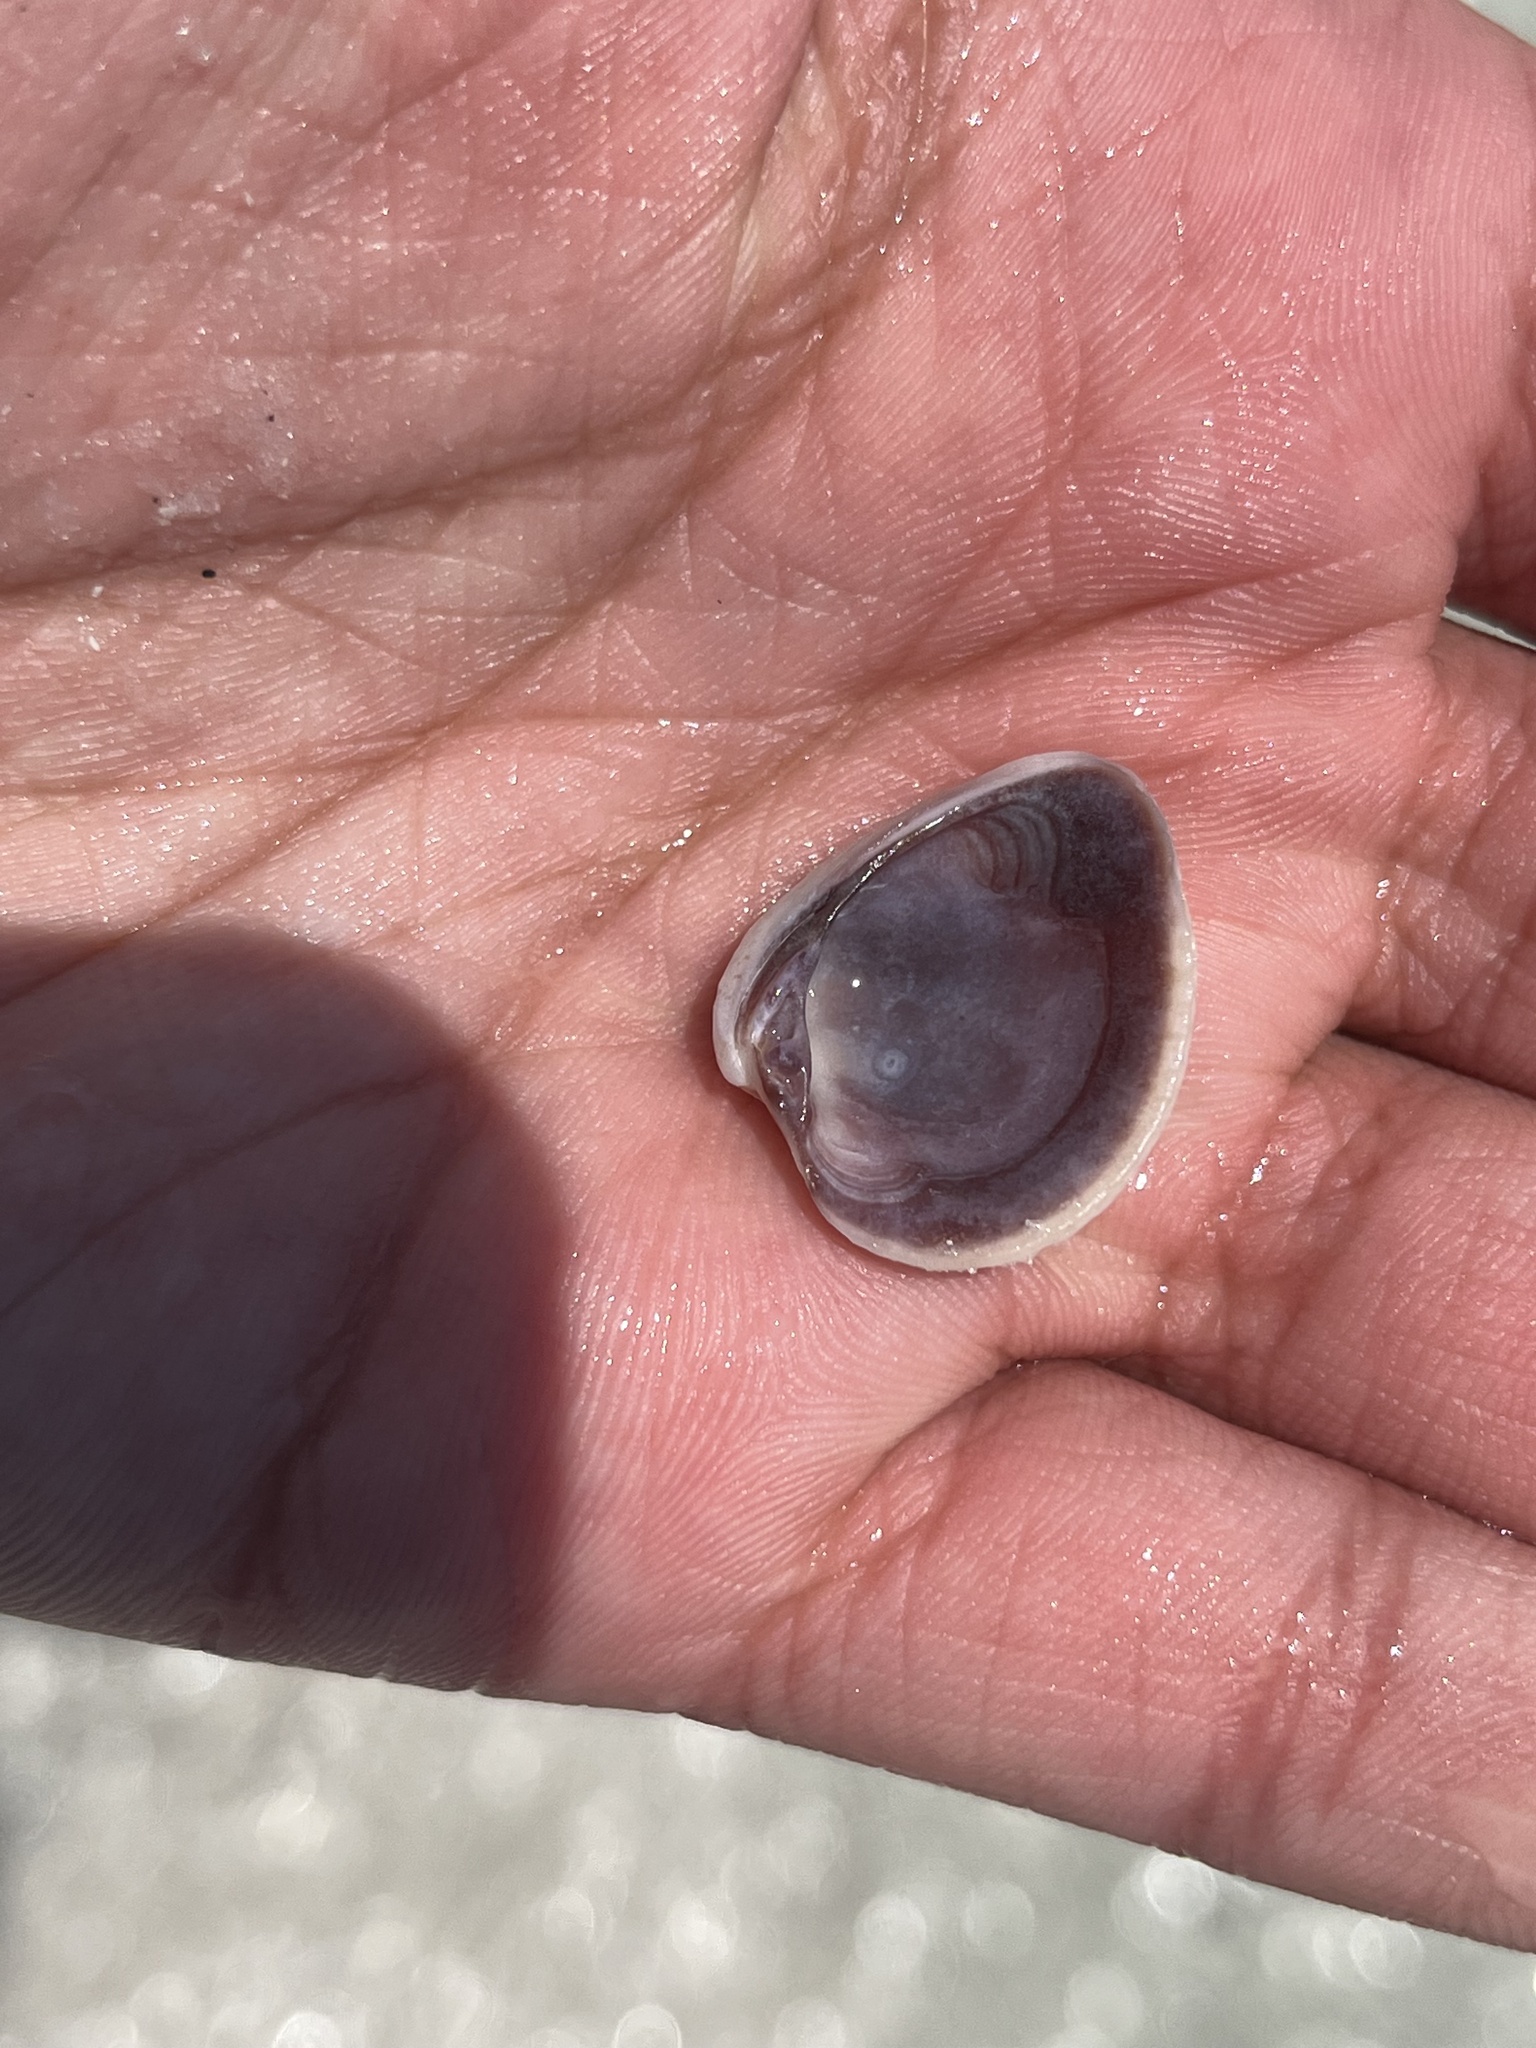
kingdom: Animalia
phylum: Mollusca
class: Bivalvia
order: Venerida
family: Veneridae
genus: Chione
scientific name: Chione elevata
